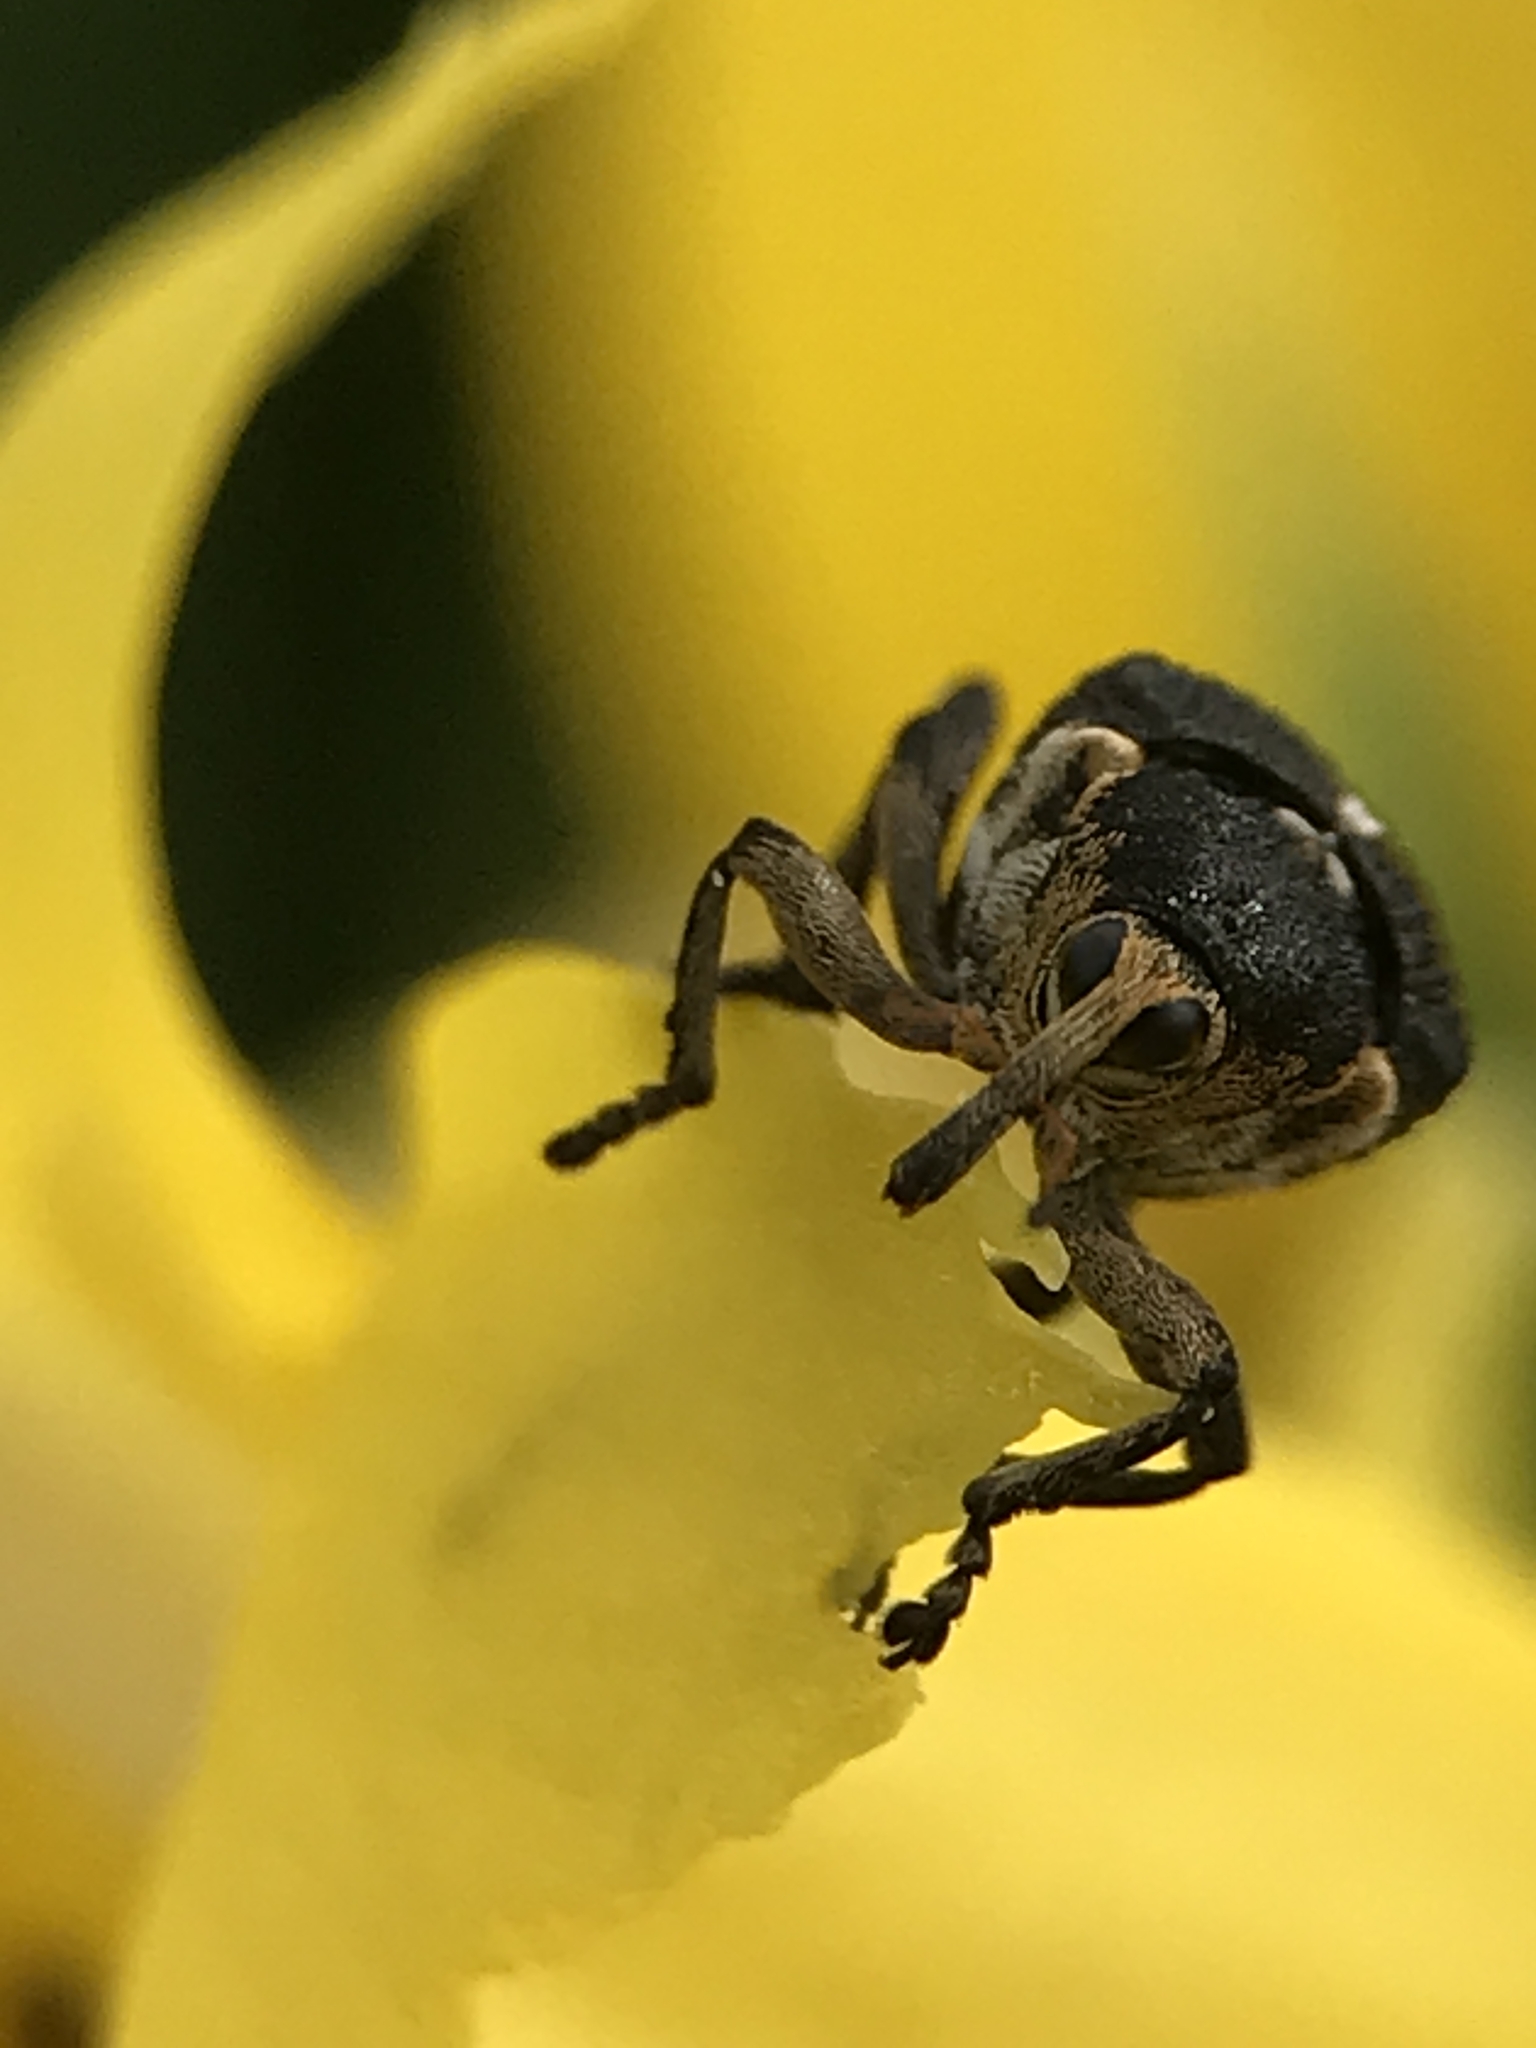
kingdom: Animalia
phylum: Arthropoda
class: Insecta
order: Coleoptera
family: Curculionidae
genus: Mononychus
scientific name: Mononychus punctumalbum
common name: Iris weevil
